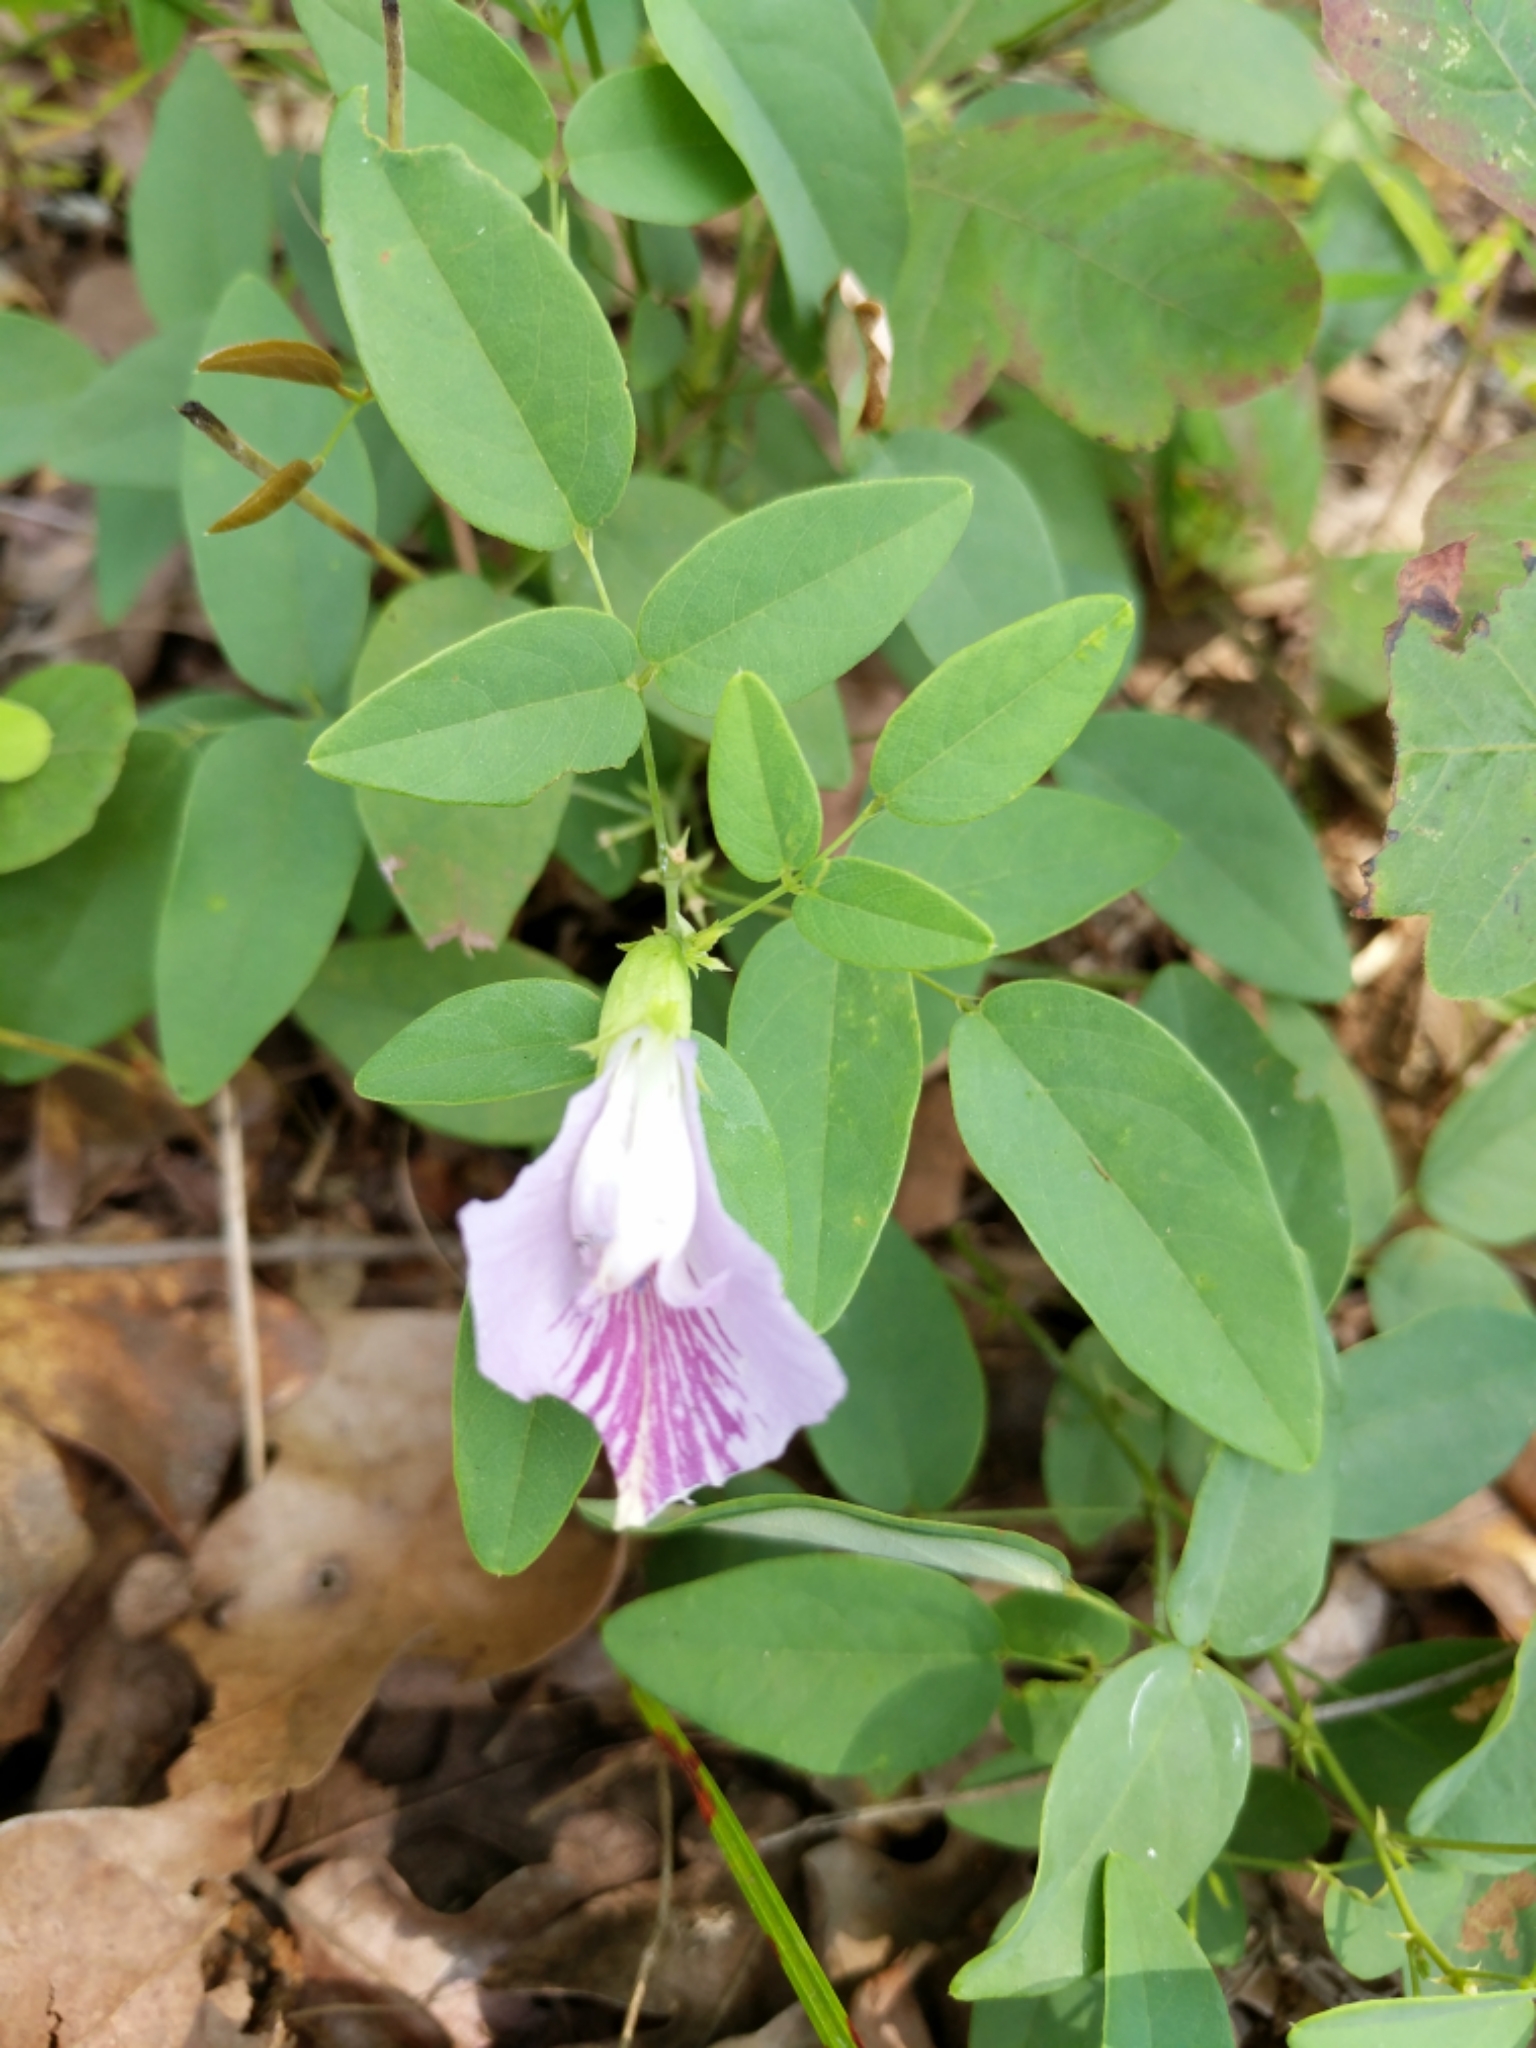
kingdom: Plantae
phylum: Tracheophyta
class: Magnoliopsida
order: Fabales
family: Fabaceae
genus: Clitoria
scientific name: Clitoria mariana
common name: Butterfly-pea
